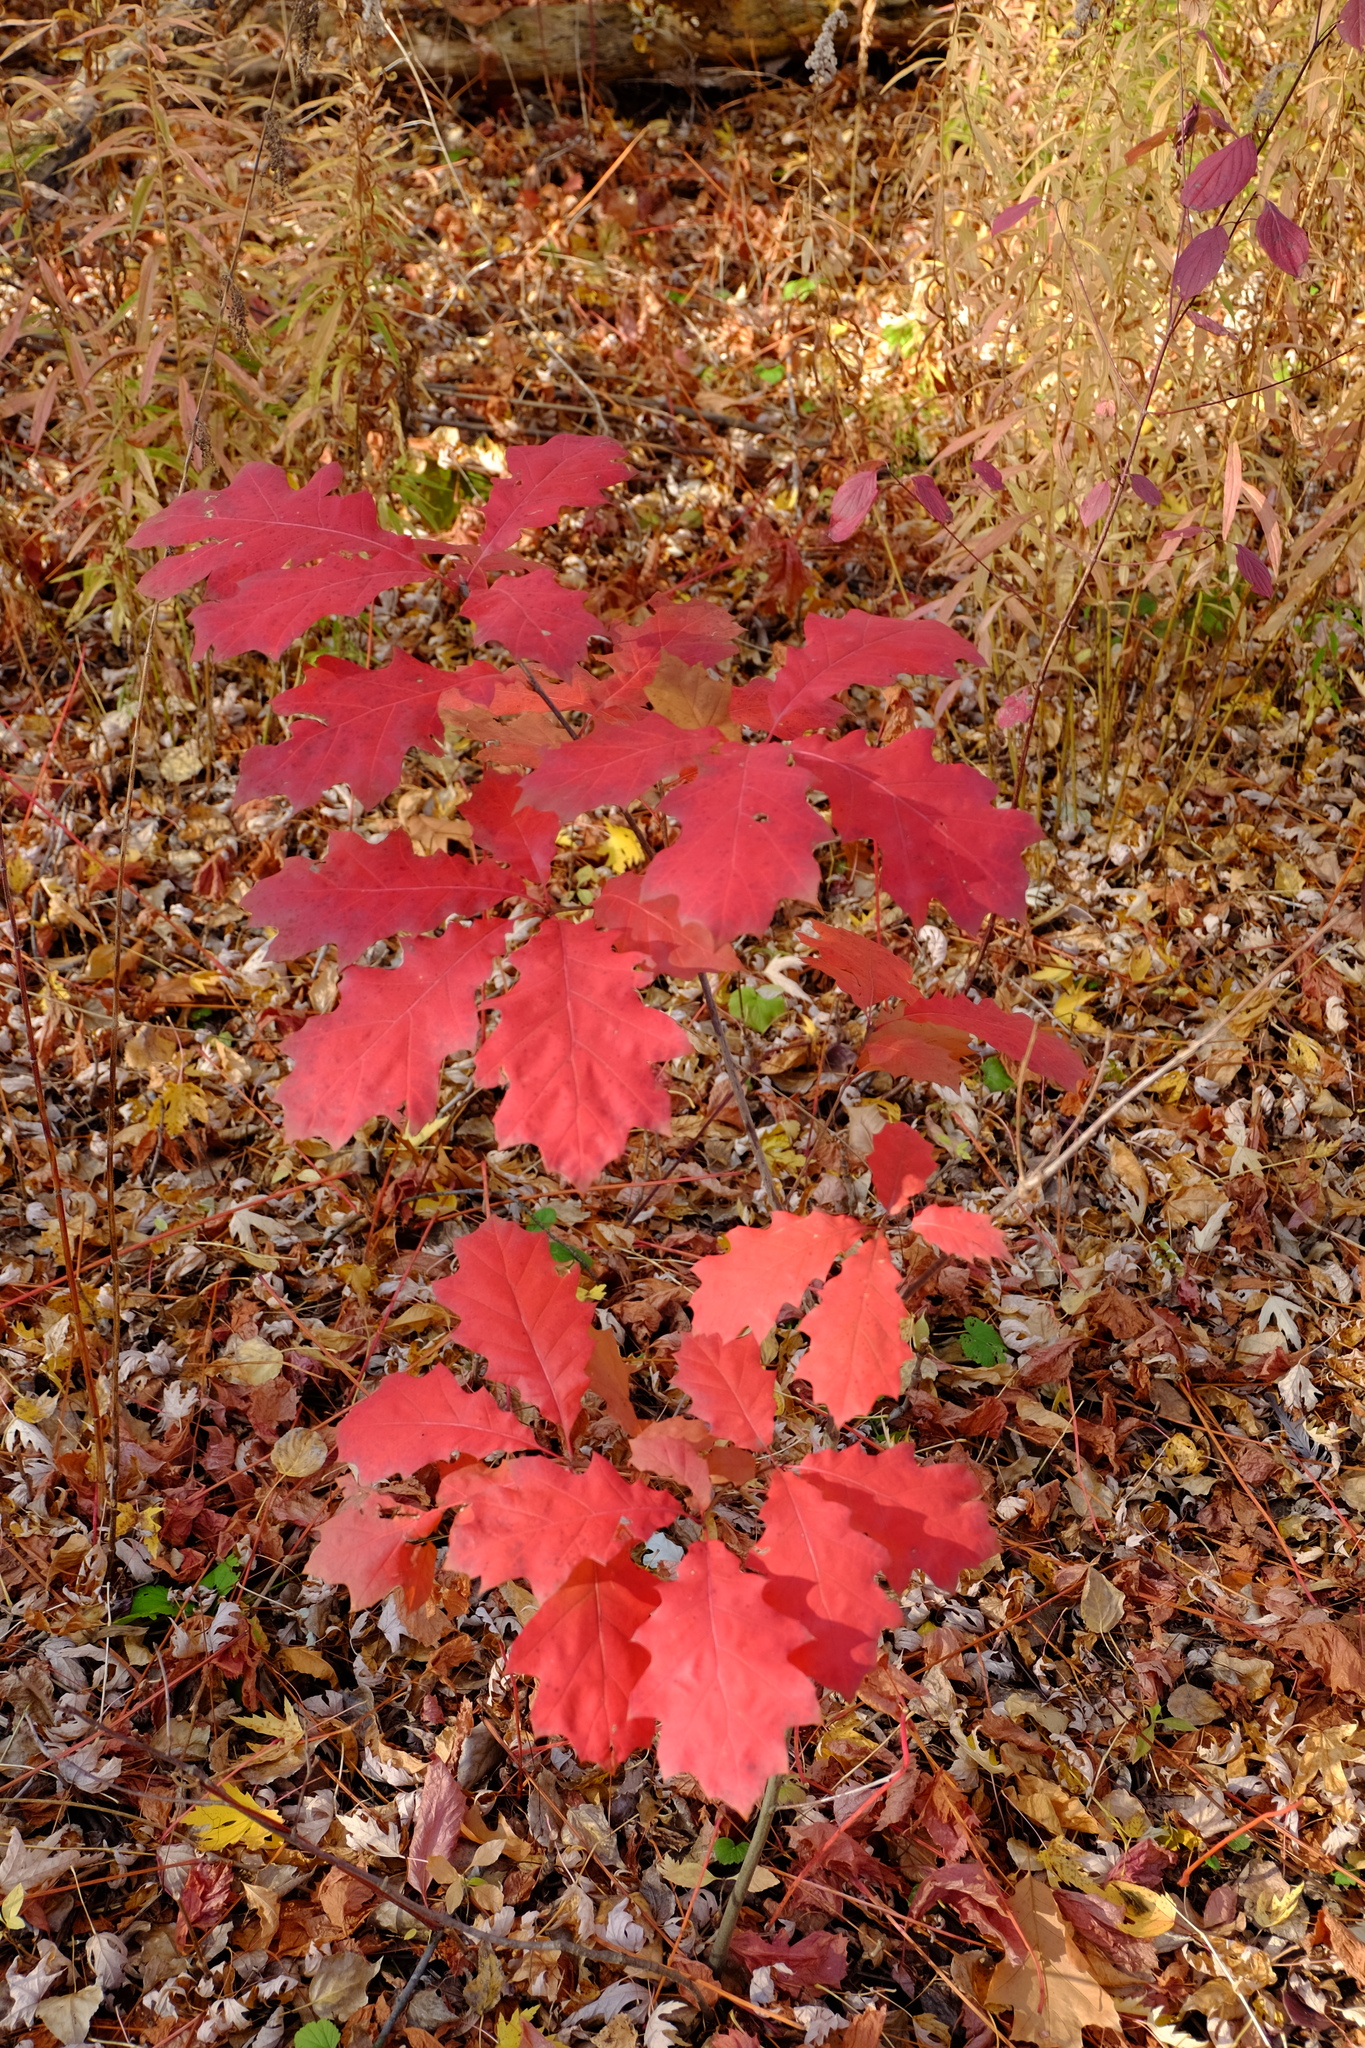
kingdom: Plantae
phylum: Tracheophyta
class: Magnoliopsida
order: Fagales
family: Fagaceae
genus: Quercus
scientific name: Quercus rubra
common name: Red oak
